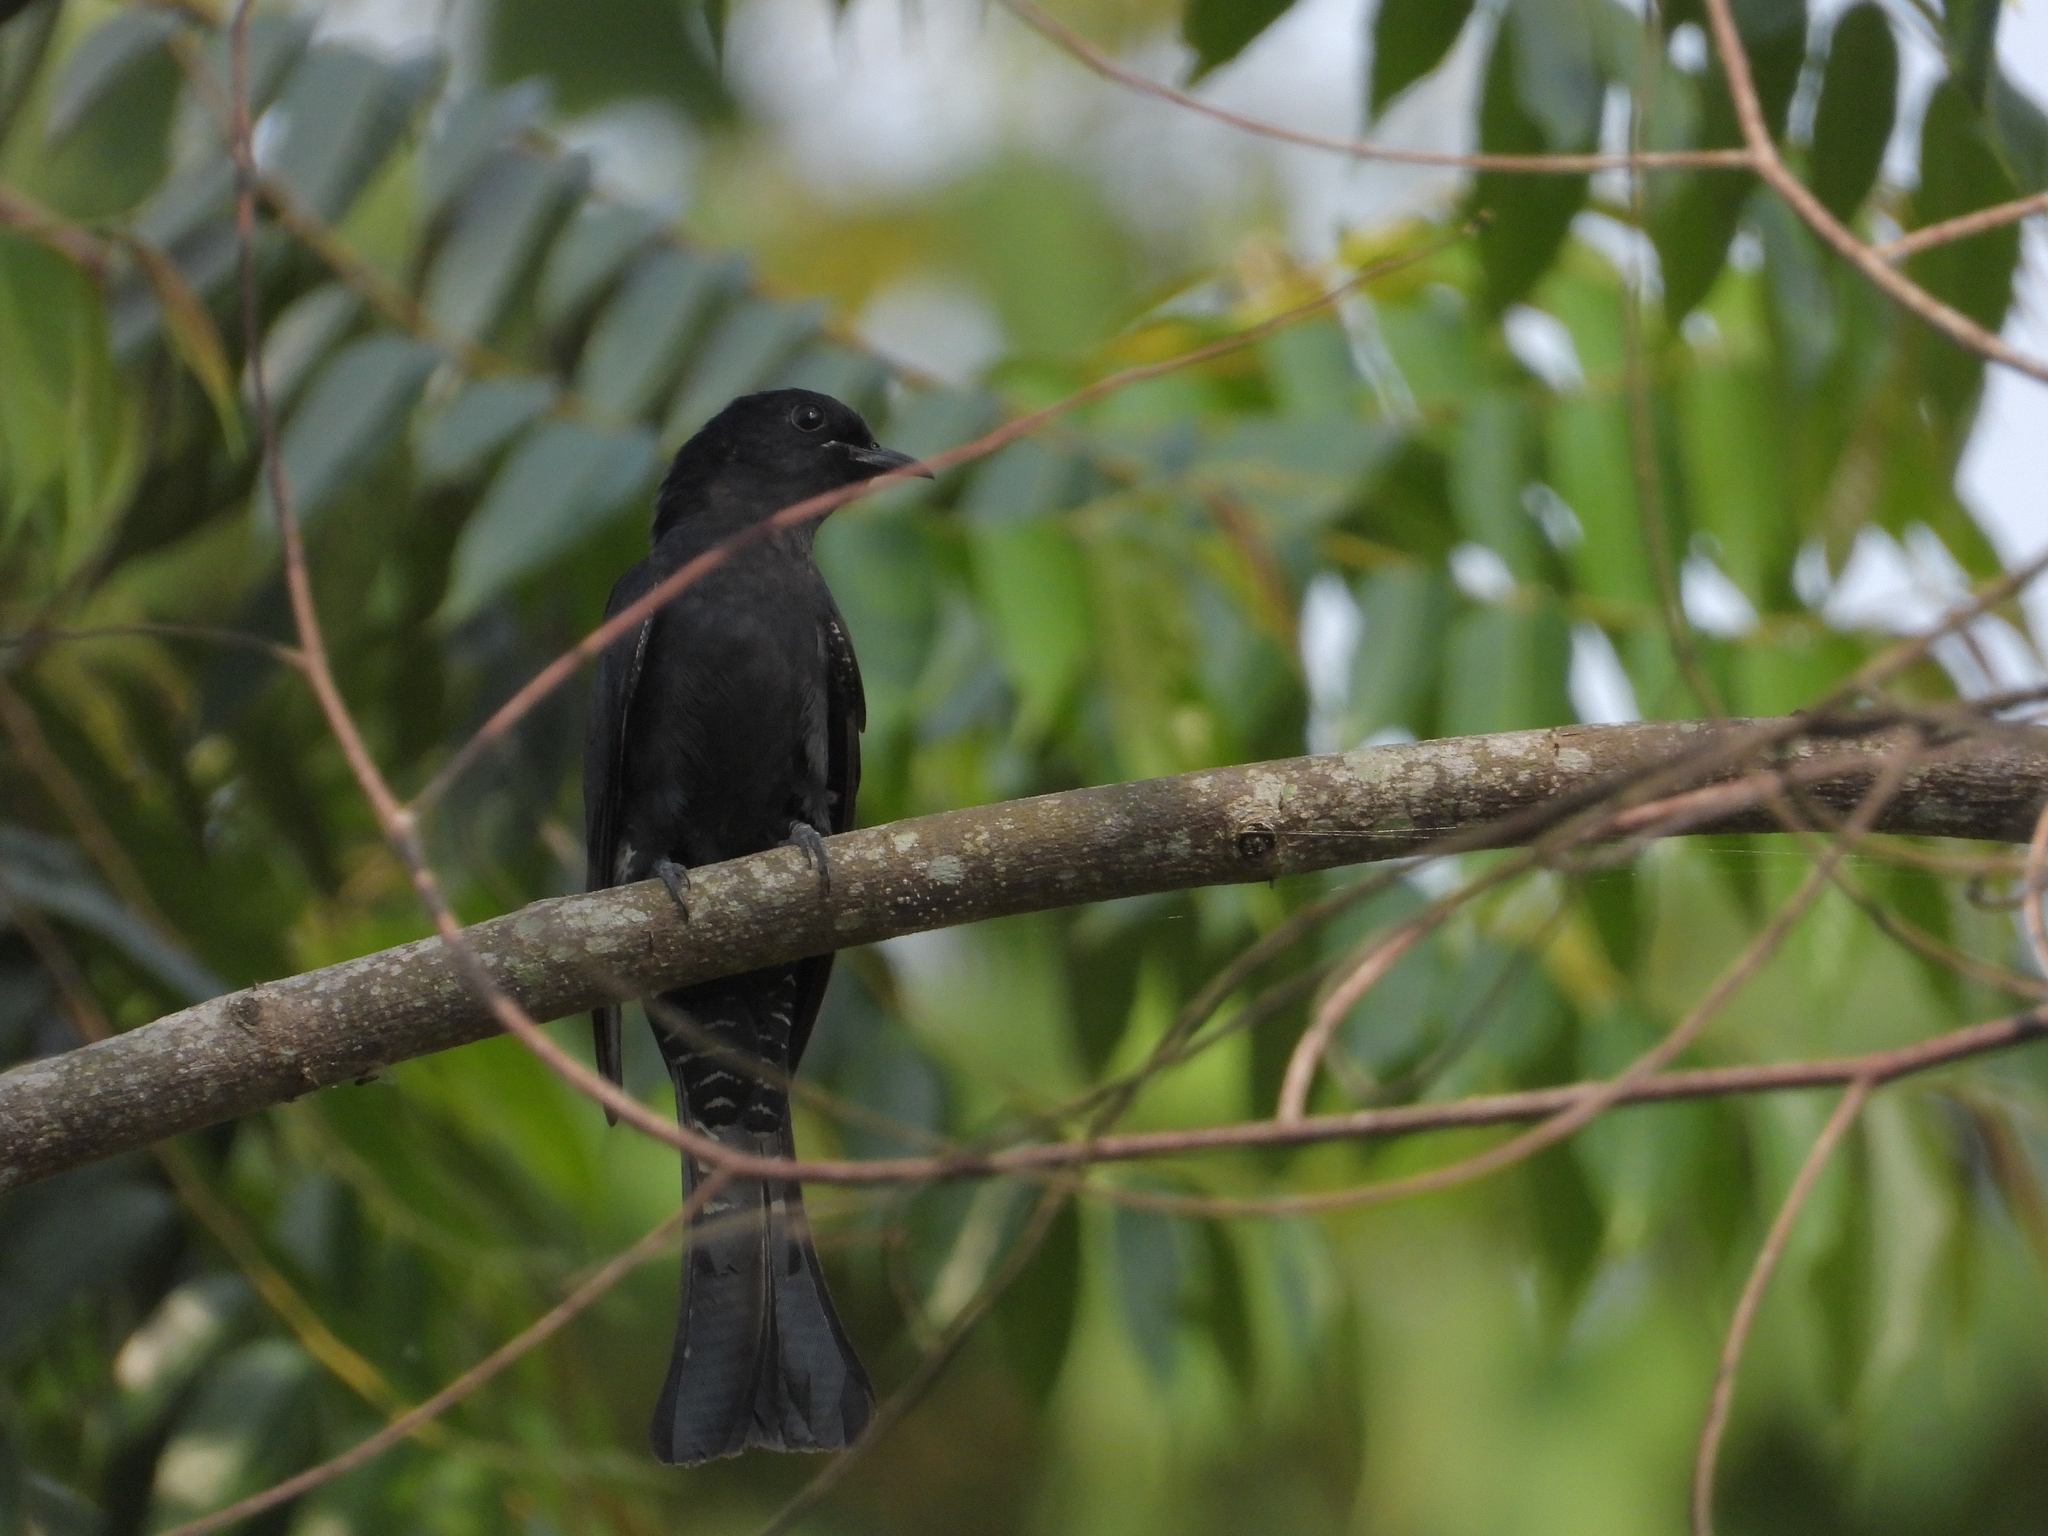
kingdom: Animalia
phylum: Chordata
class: Aves
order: Cuculiformes
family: Cuculidae
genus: Surniculus
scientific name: Surniculus lugubris
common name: Square-tailed drongo-cuckoo
